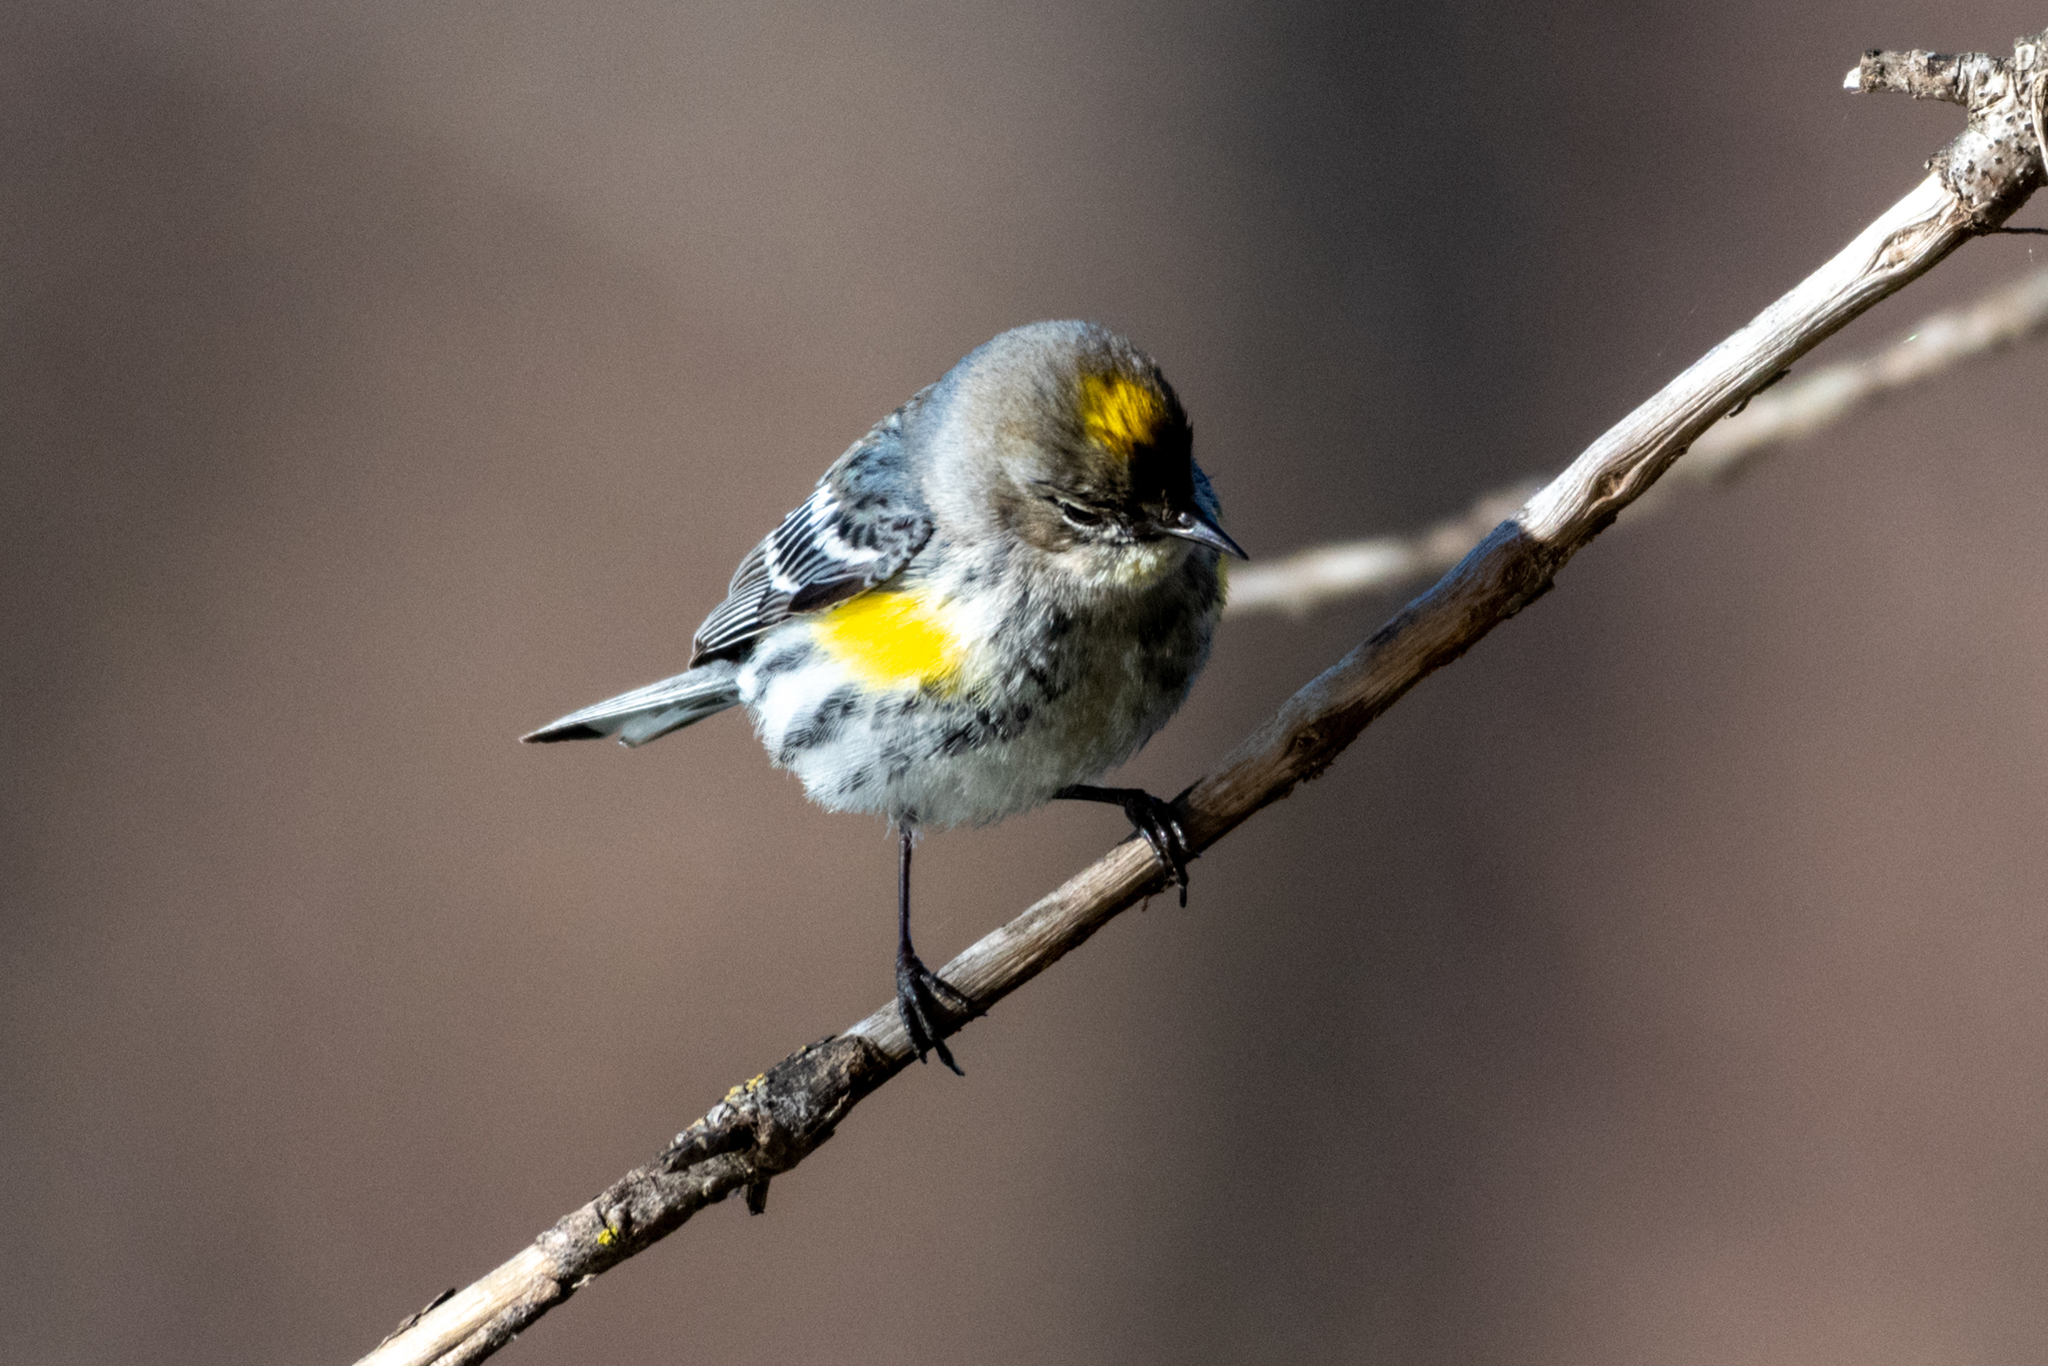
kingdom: Animalia
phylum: Chordata
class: Aves
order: Passeriformes
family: Parulidae
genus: Setophaga
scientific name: Setophaga coronata
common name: Myrtle warbler
